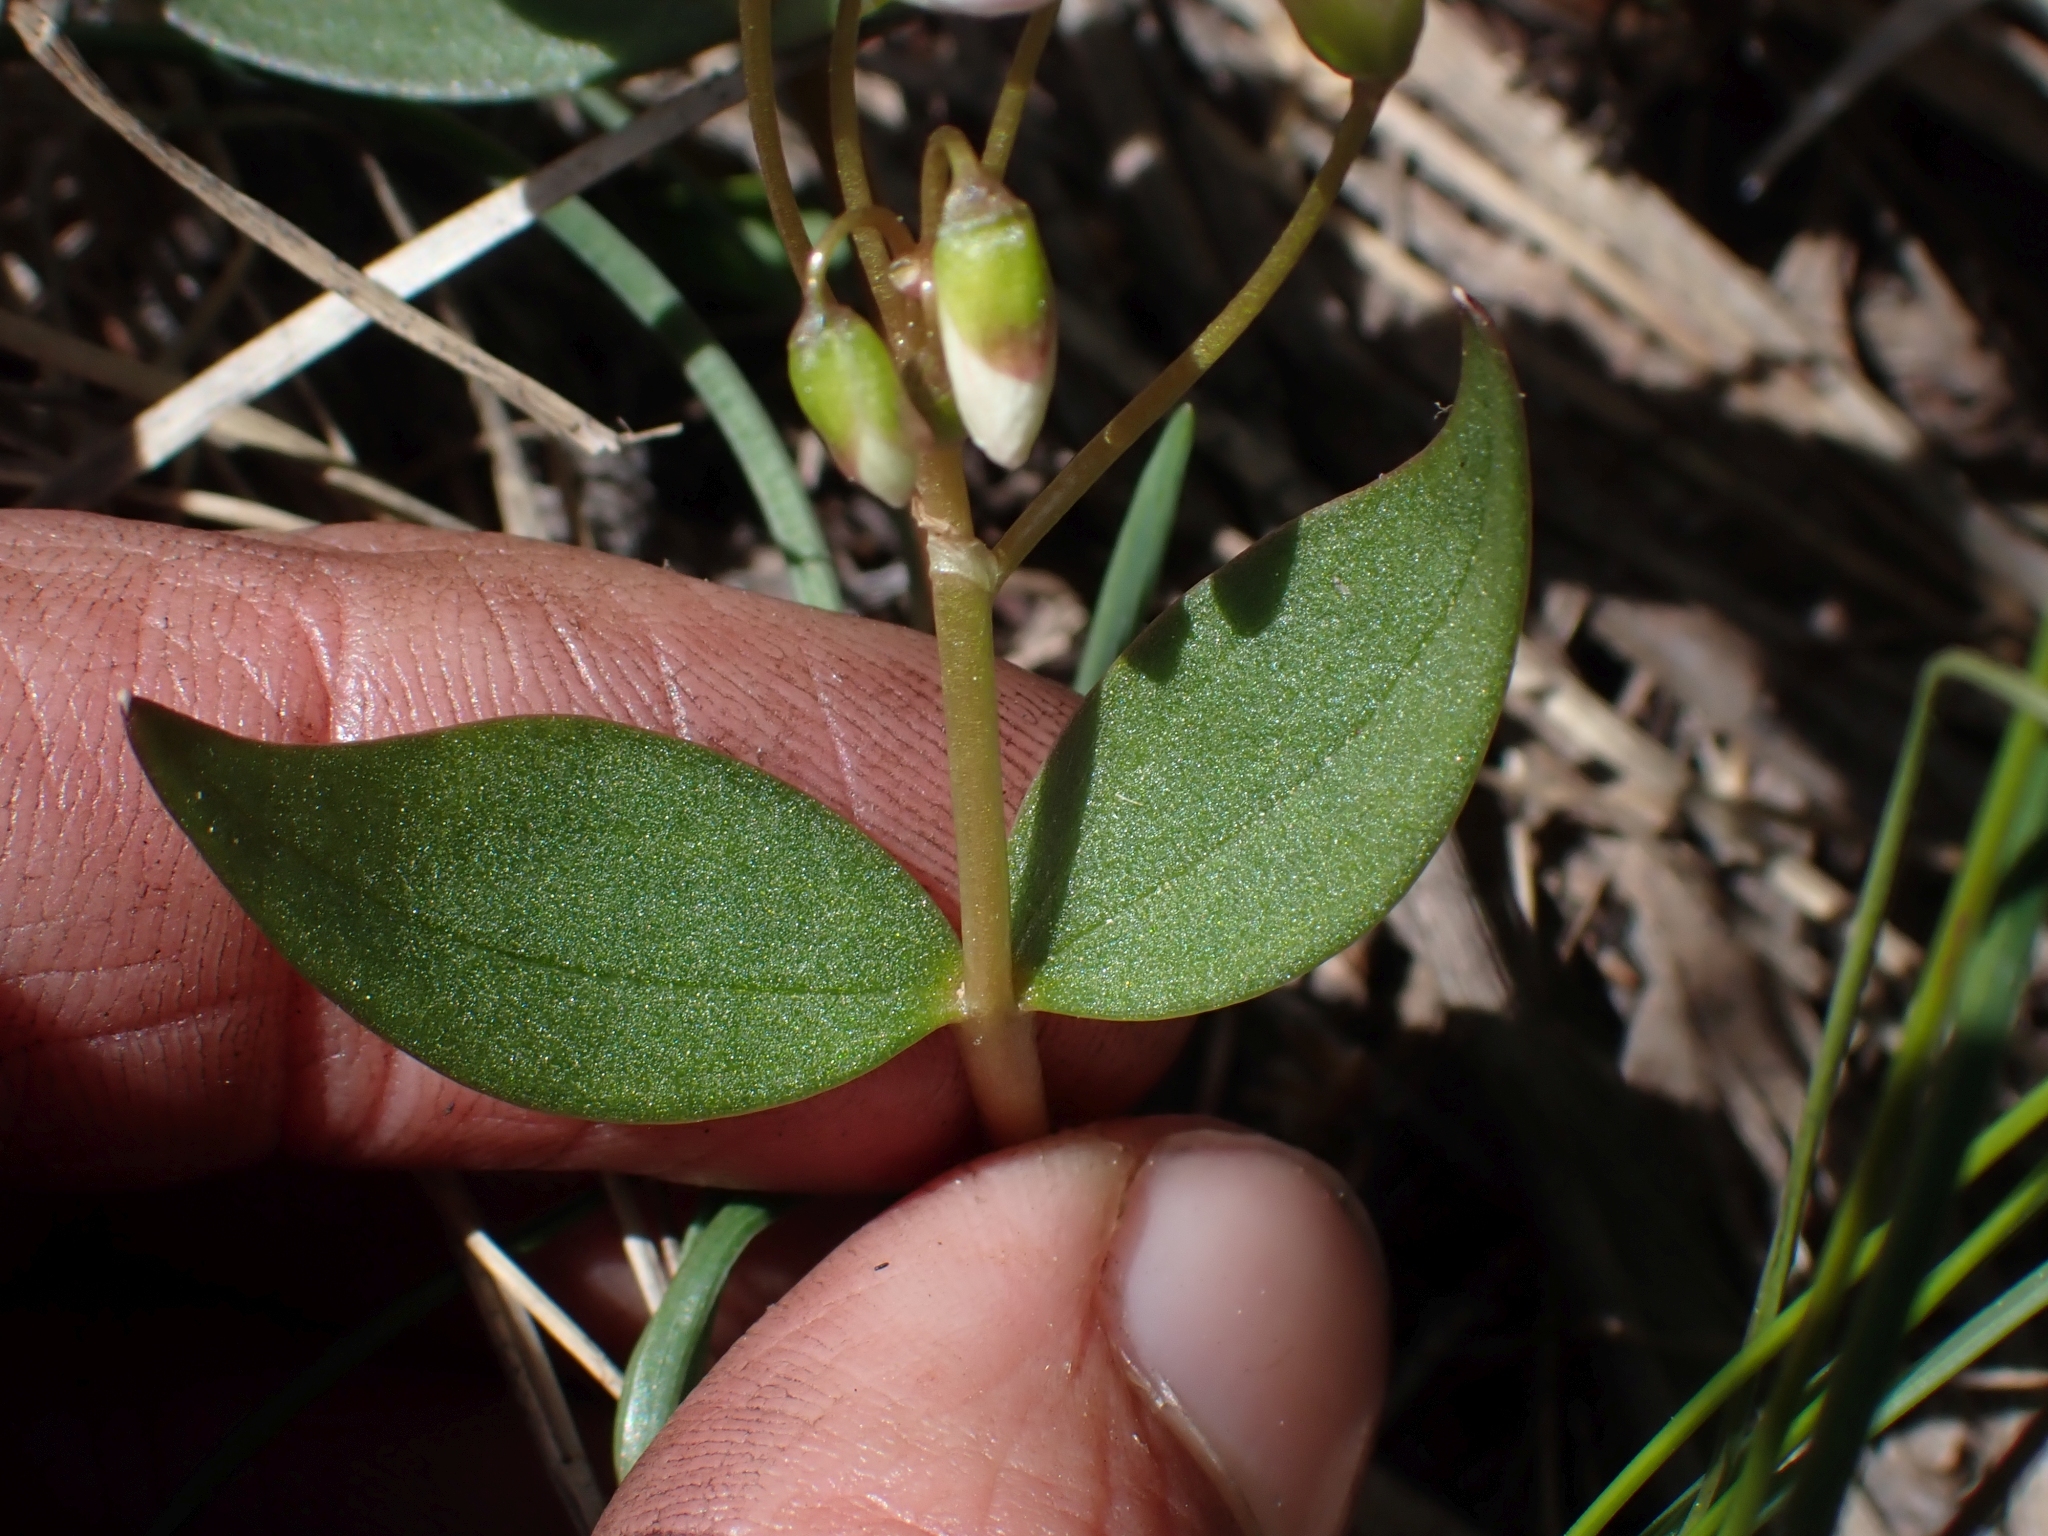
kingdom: Plantae
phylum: Tracheophyta
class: Magnoliopsida
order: Caryophyllales
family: Montiaceae
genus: Claytonia
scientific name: Claytonia lanceolata
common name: Western spring-beauty
